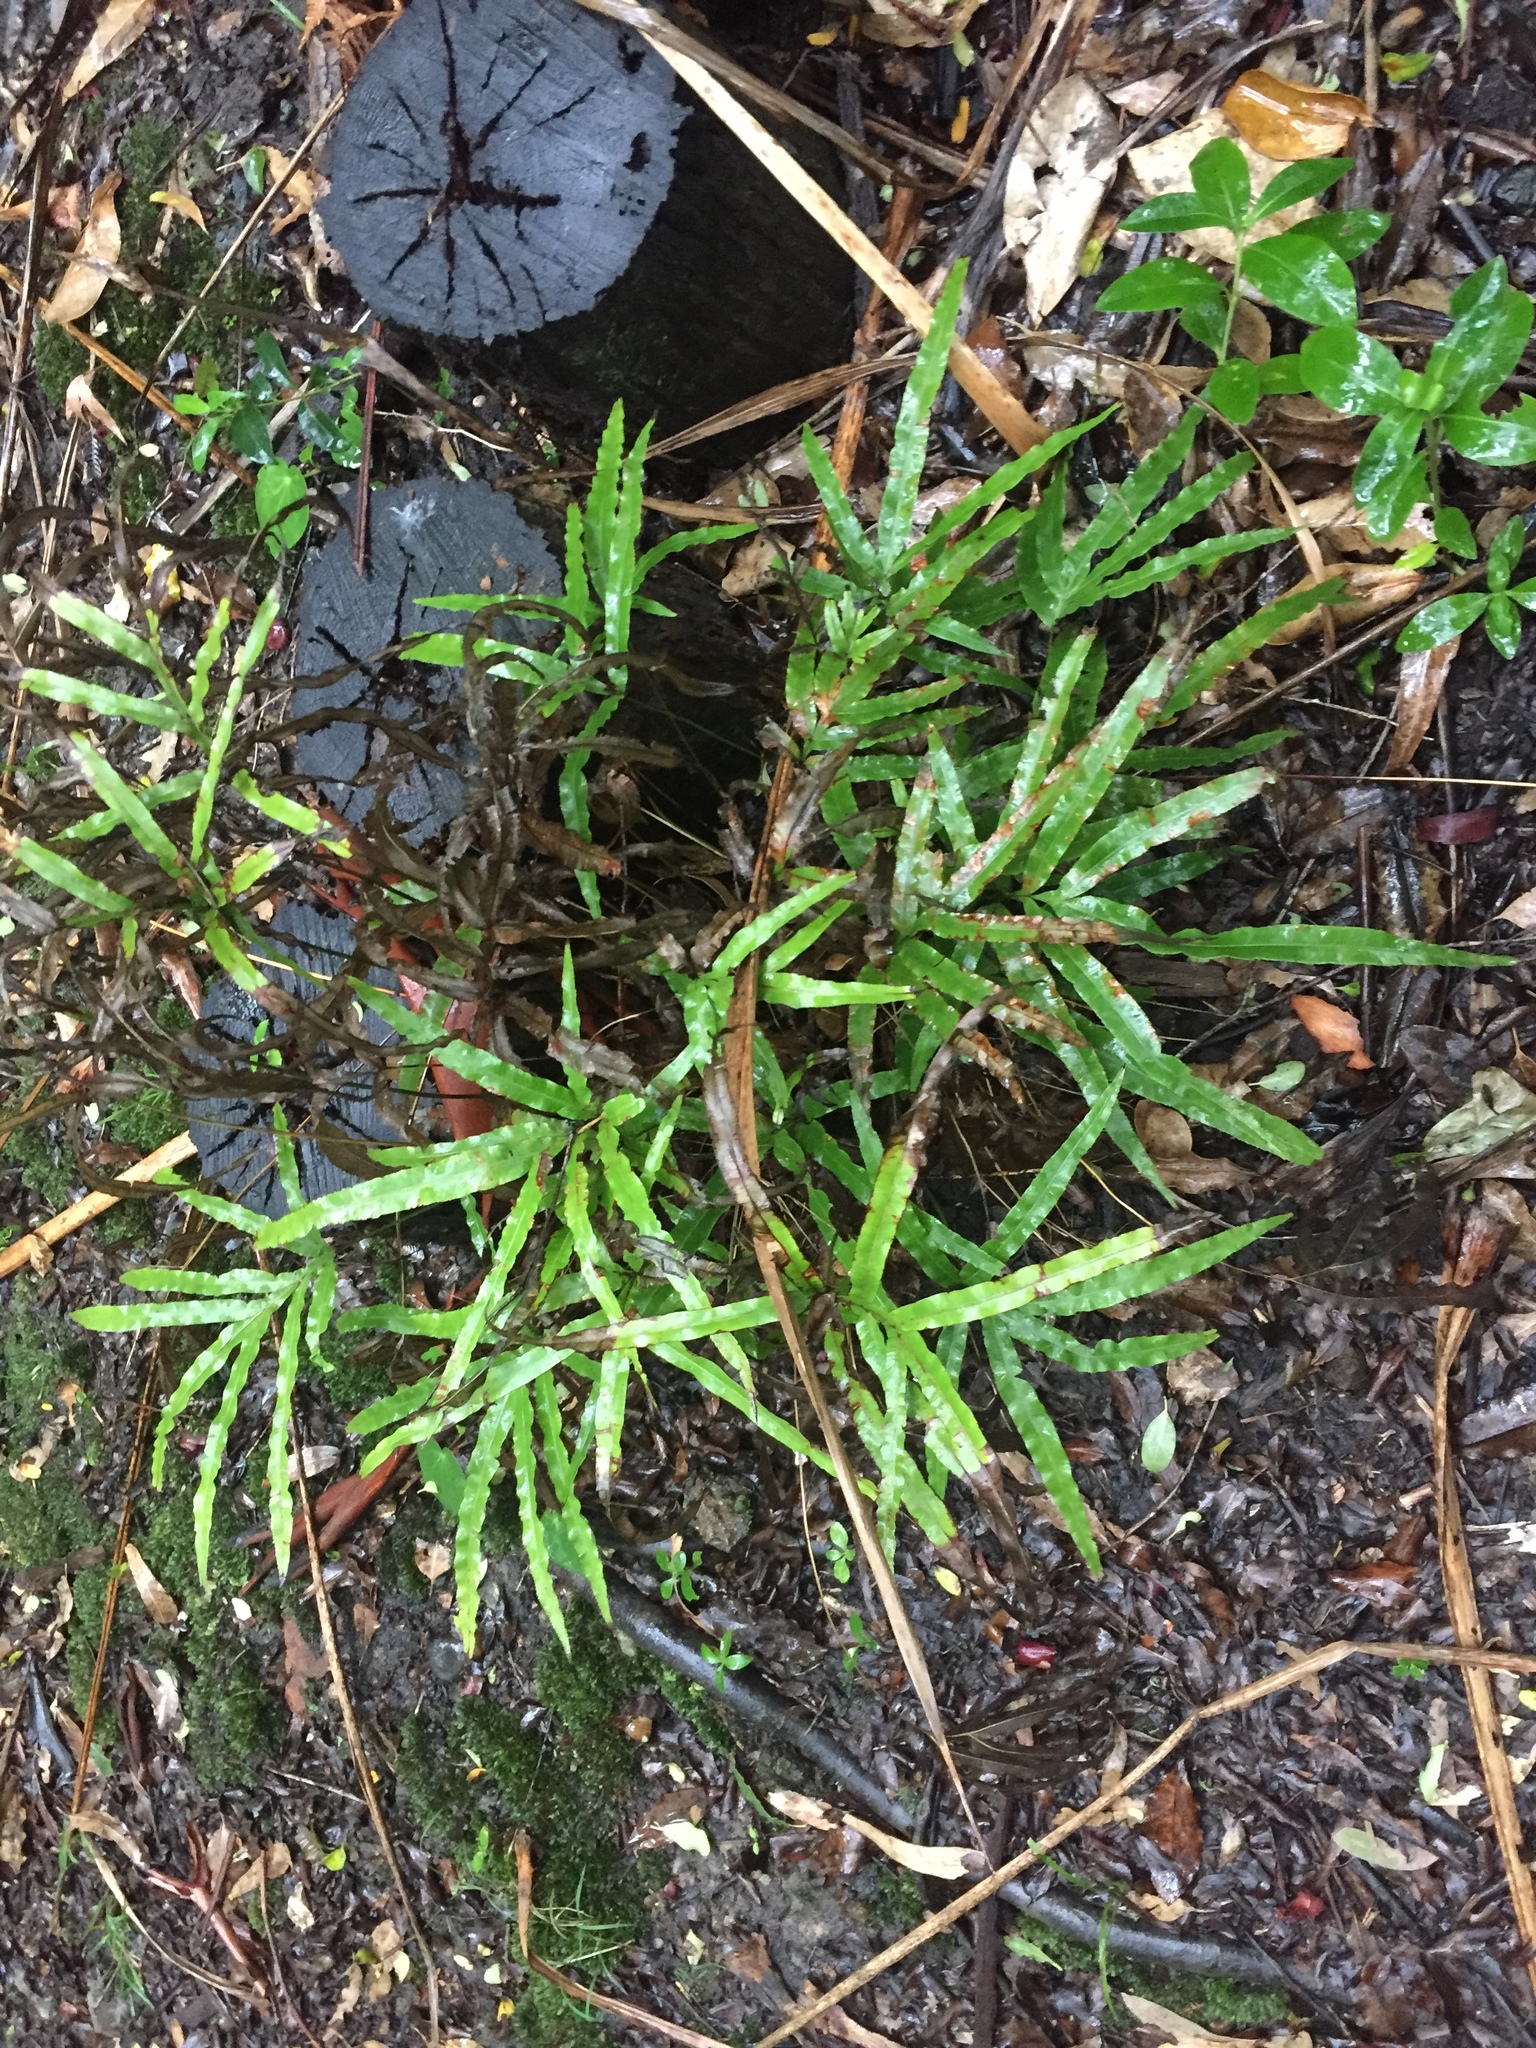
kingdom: Plantae
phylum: Tracheophyta
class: Polypodiopsida
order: Polypodiales
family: Pteridaceae
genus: Pteris
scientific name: Pteris cretica
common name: Ribbon fern
